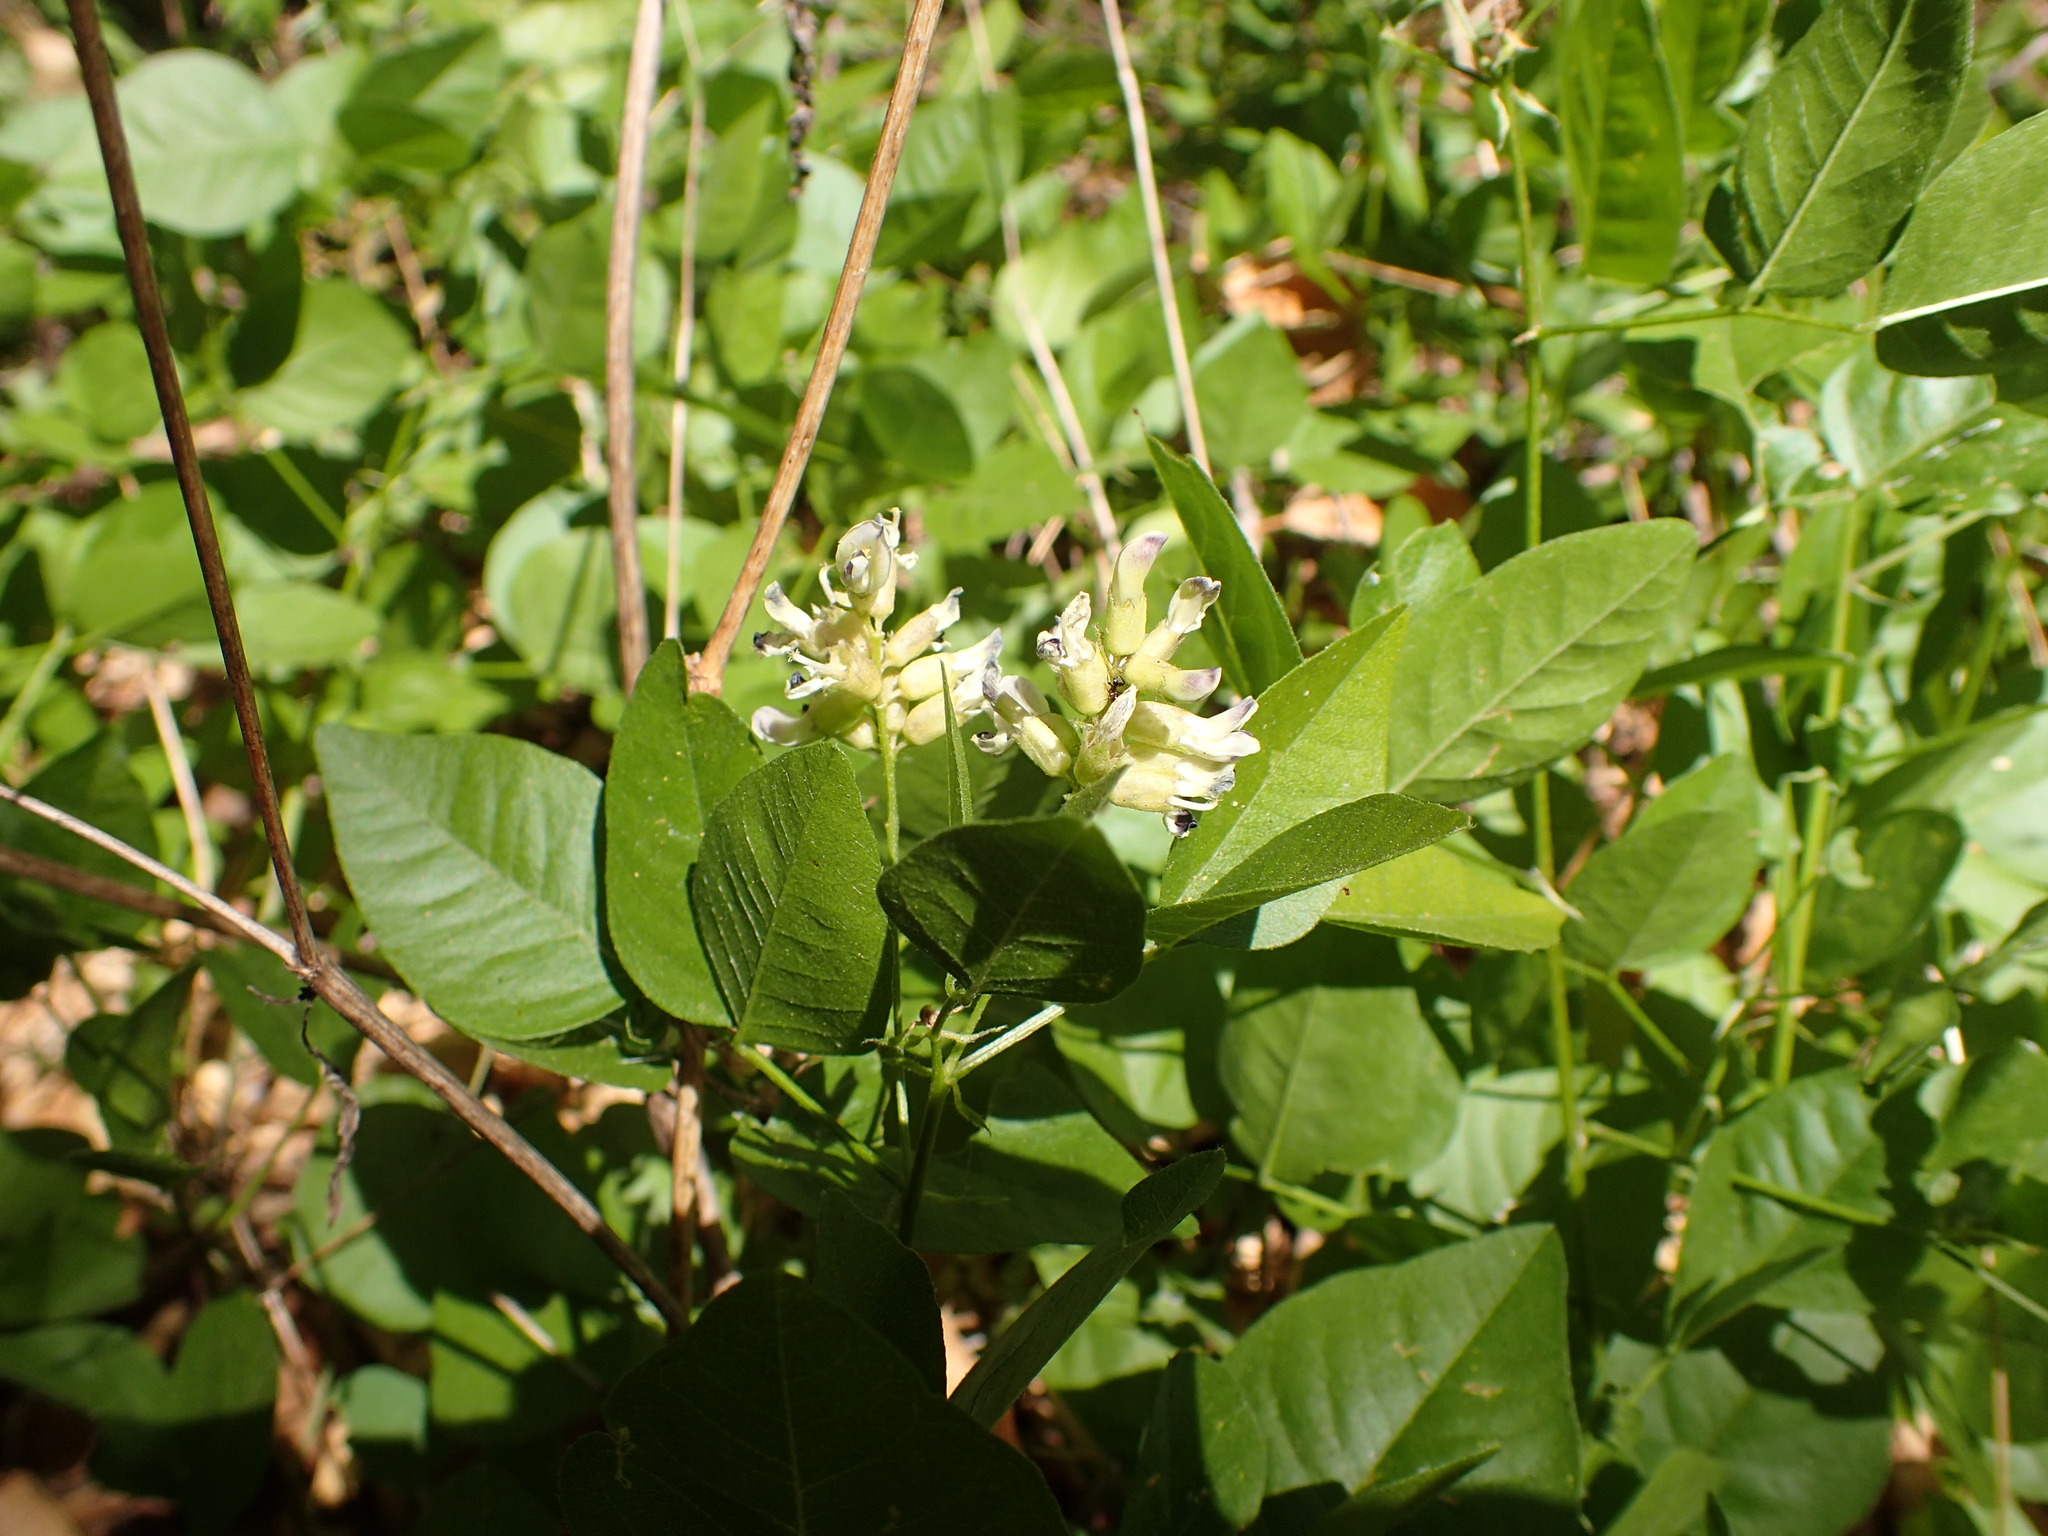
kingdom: Plantae
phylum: Tracheophyta
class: Magnoliopsida
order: Fabales
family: Fabaceae
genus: Rupertia
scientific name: Rupertia physodes
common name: California-tea
